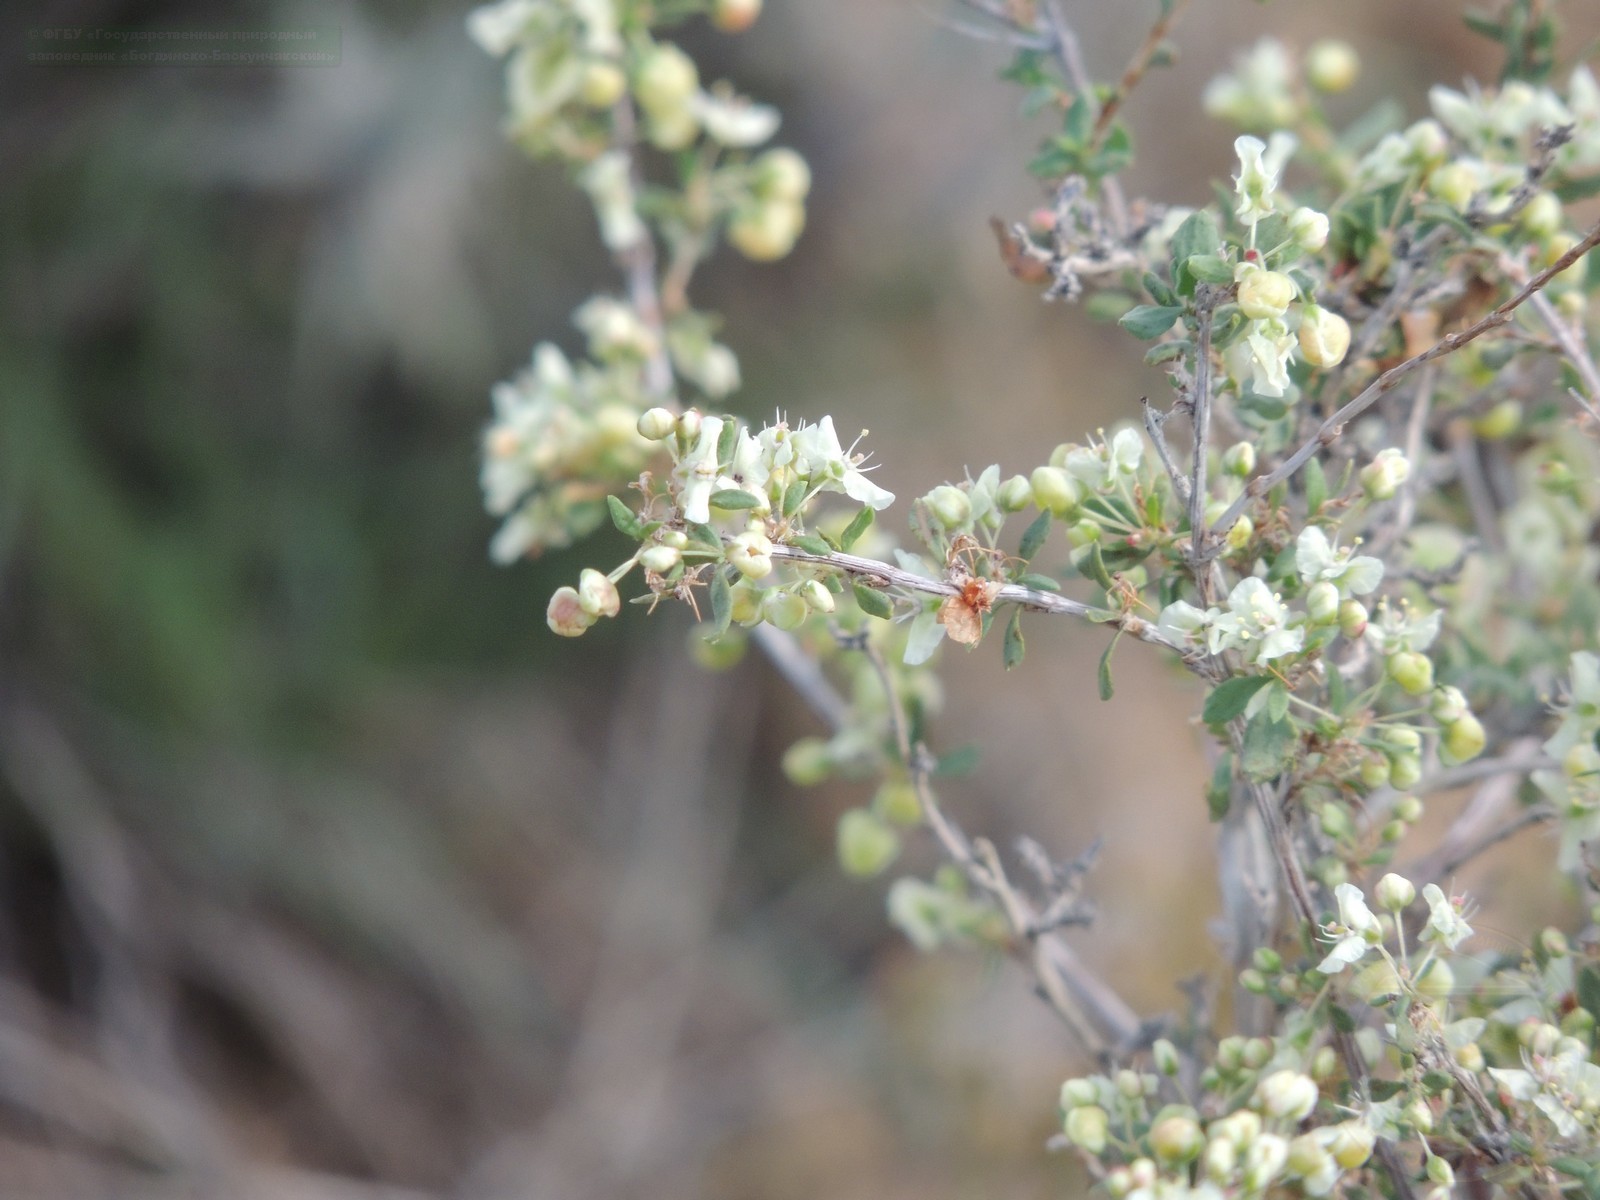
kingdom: Plantae
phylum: Tracheophyta
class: Magnoliopsida
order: Caryophyllales
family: Polygonaceae
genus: Atraphaxis
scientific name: Atraphaxis replicata
